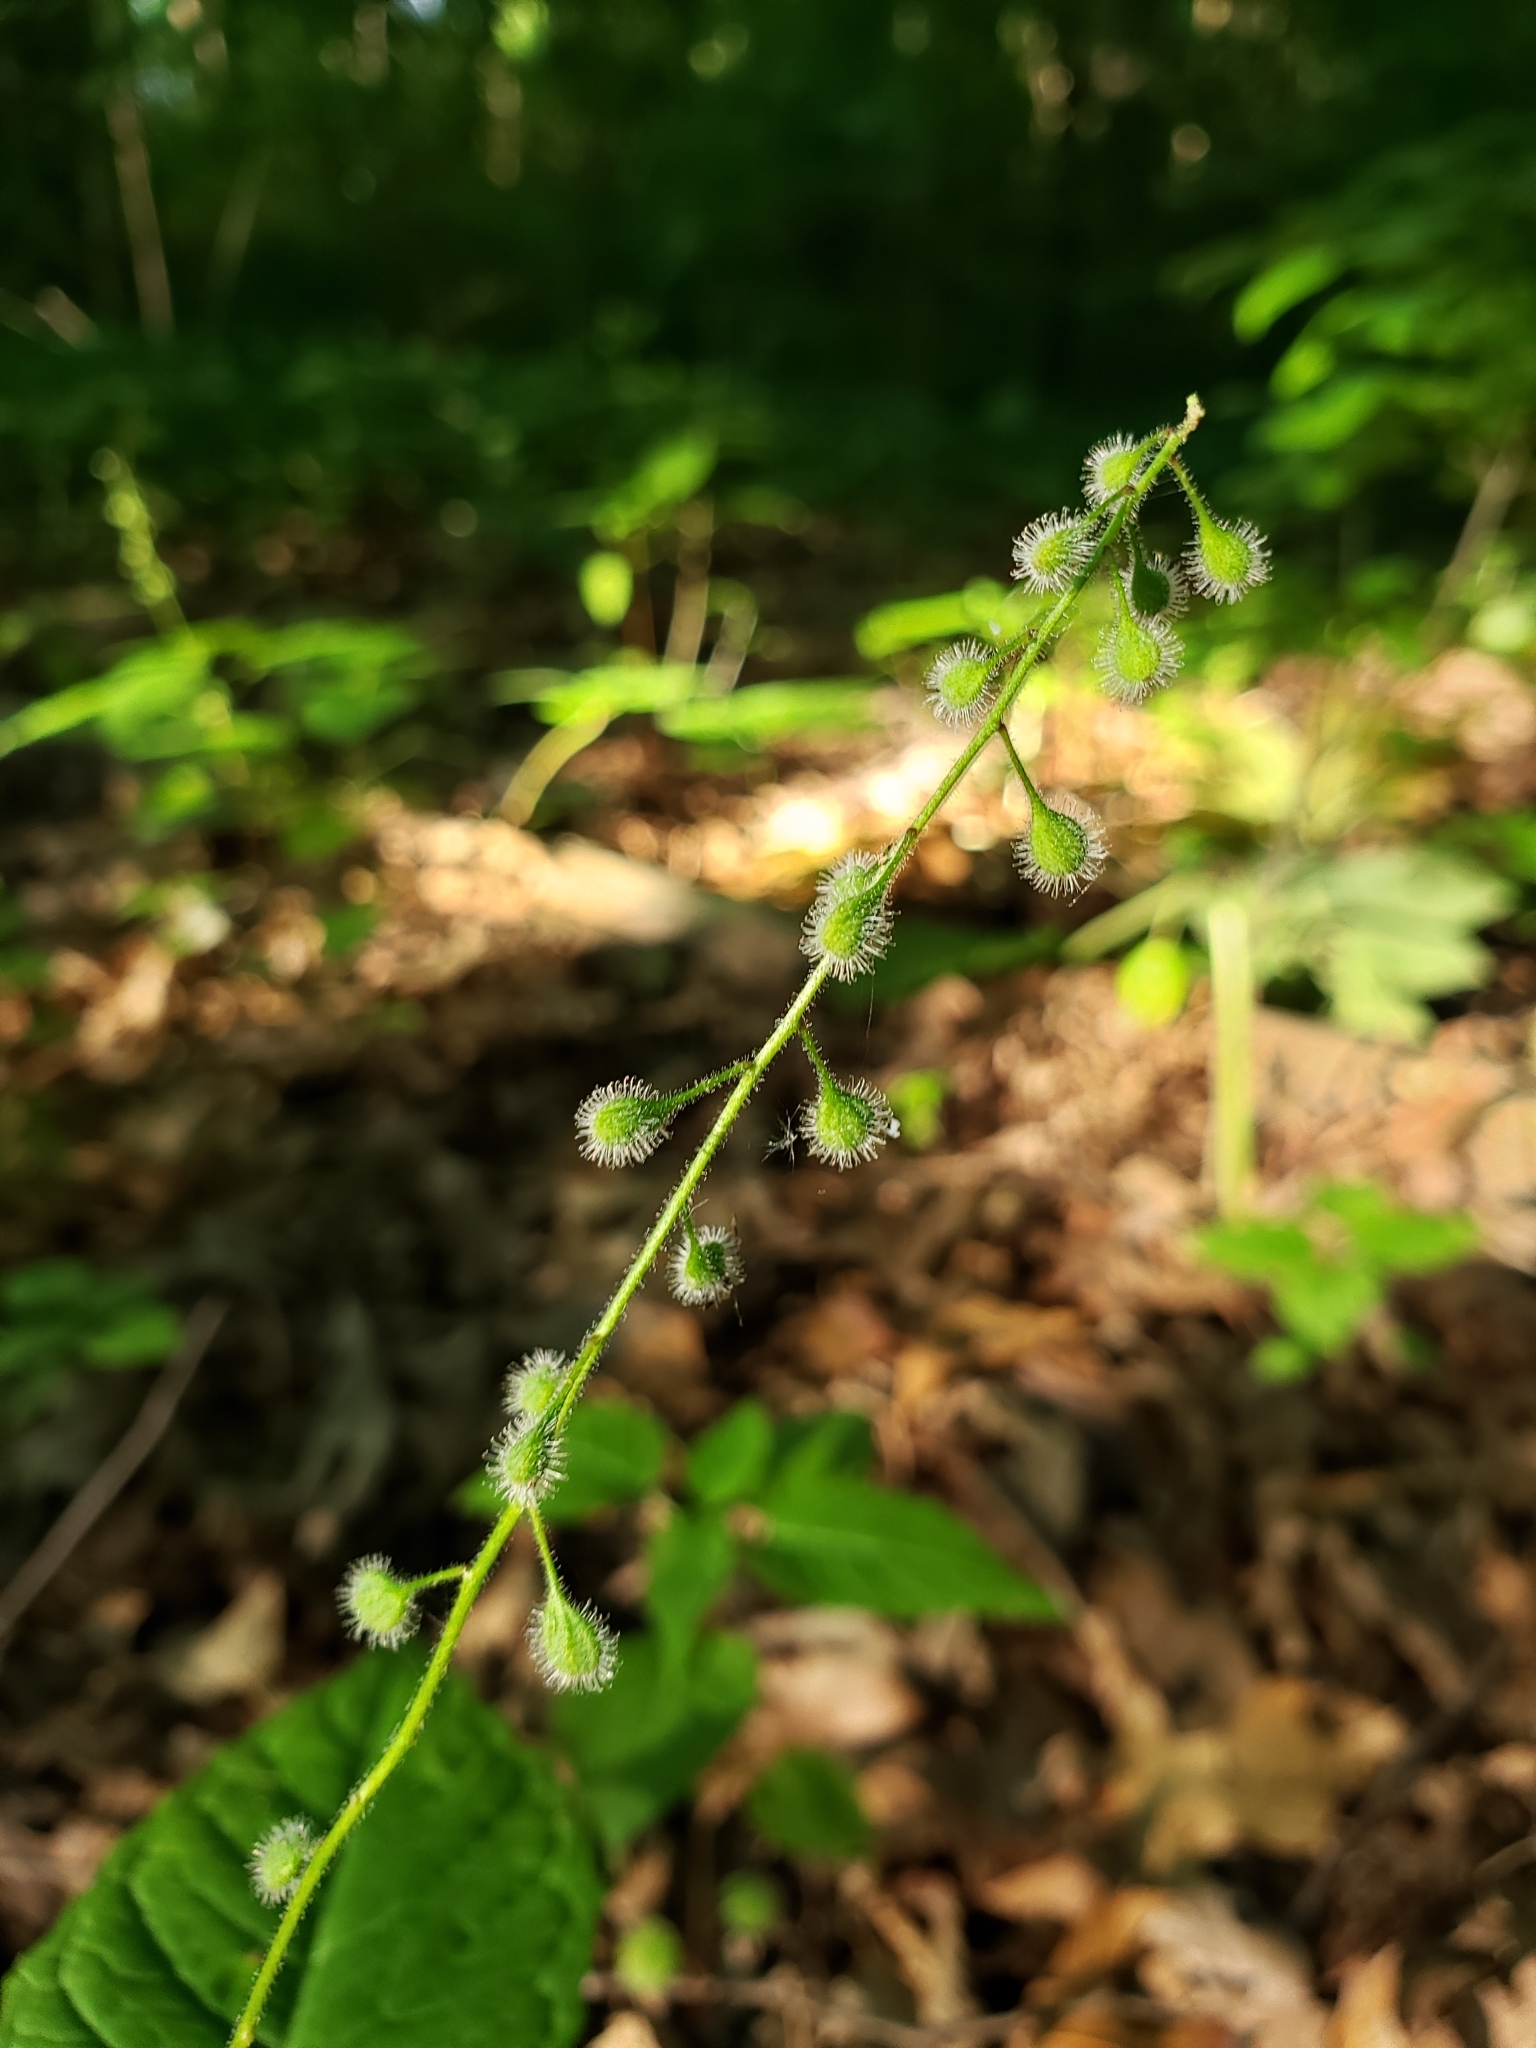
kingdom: Plantae
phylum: Tracheophyta
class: Magnoliopsida
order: Myrtales
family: Onagraceae
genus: Circaea
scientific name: Circaea canadensis
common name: Broad-leaved enchanter's nightshade
